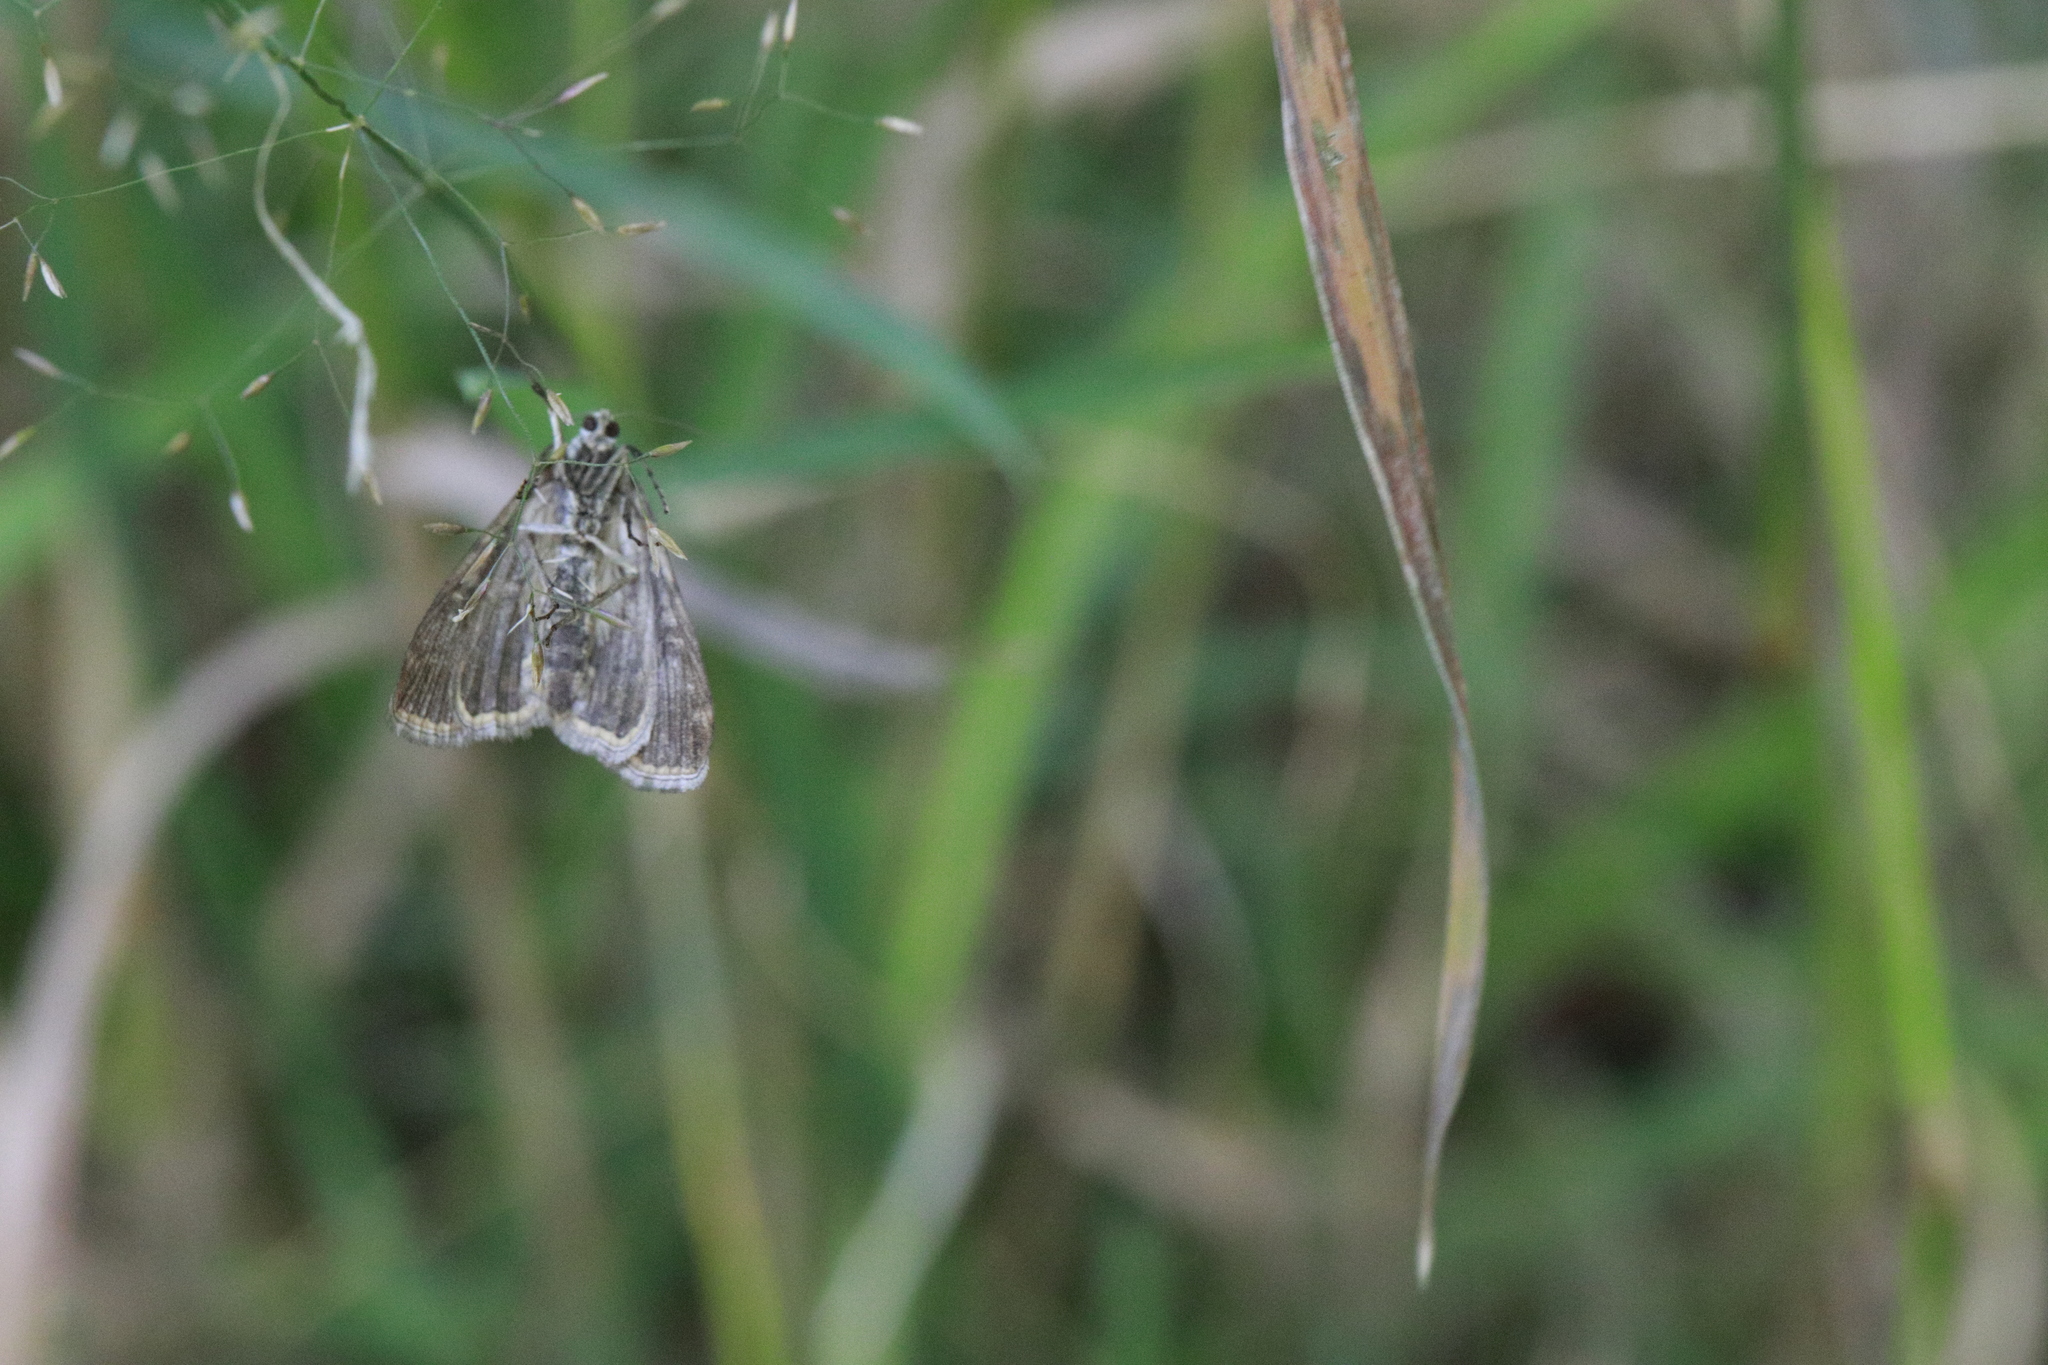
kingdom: Animalia
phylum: Arthropoda
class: Insecta
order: Lepidoptera
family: Crambidae
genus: Elophila
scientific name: Elophila nymphaeata
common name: Brown china-mark
